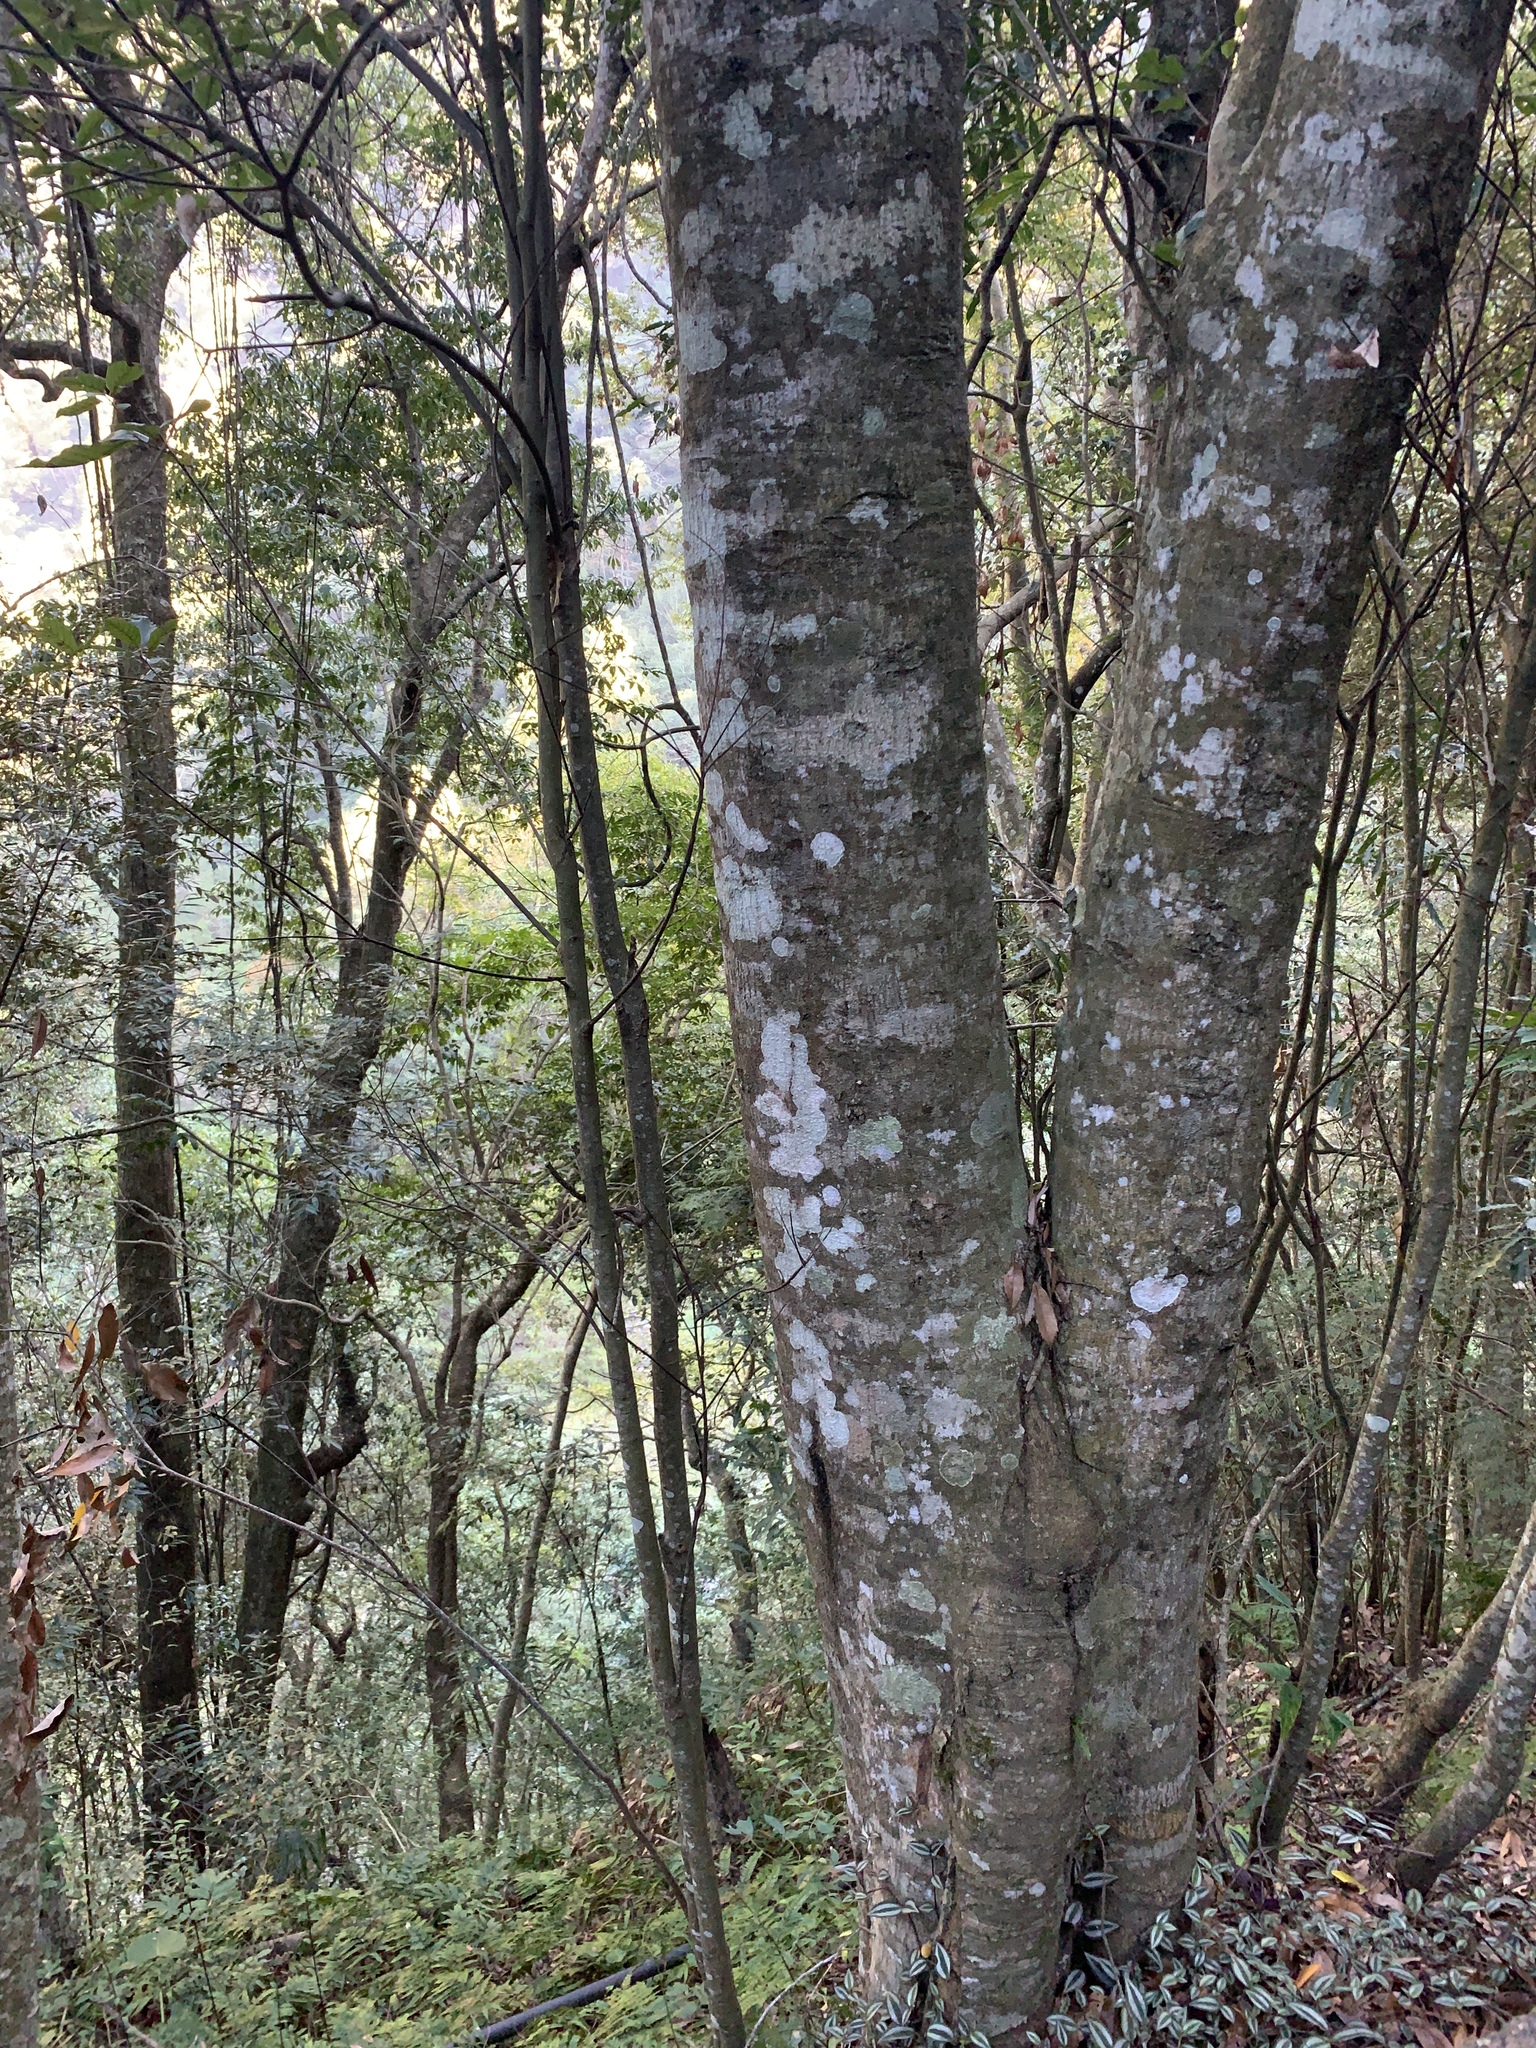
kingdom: Plantae
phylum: Tracheophyta
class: Magnoliopsida
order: Fagales
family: Fagaceae
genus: Quercus
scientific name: Quercus glauca
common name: Ring-cup oak
